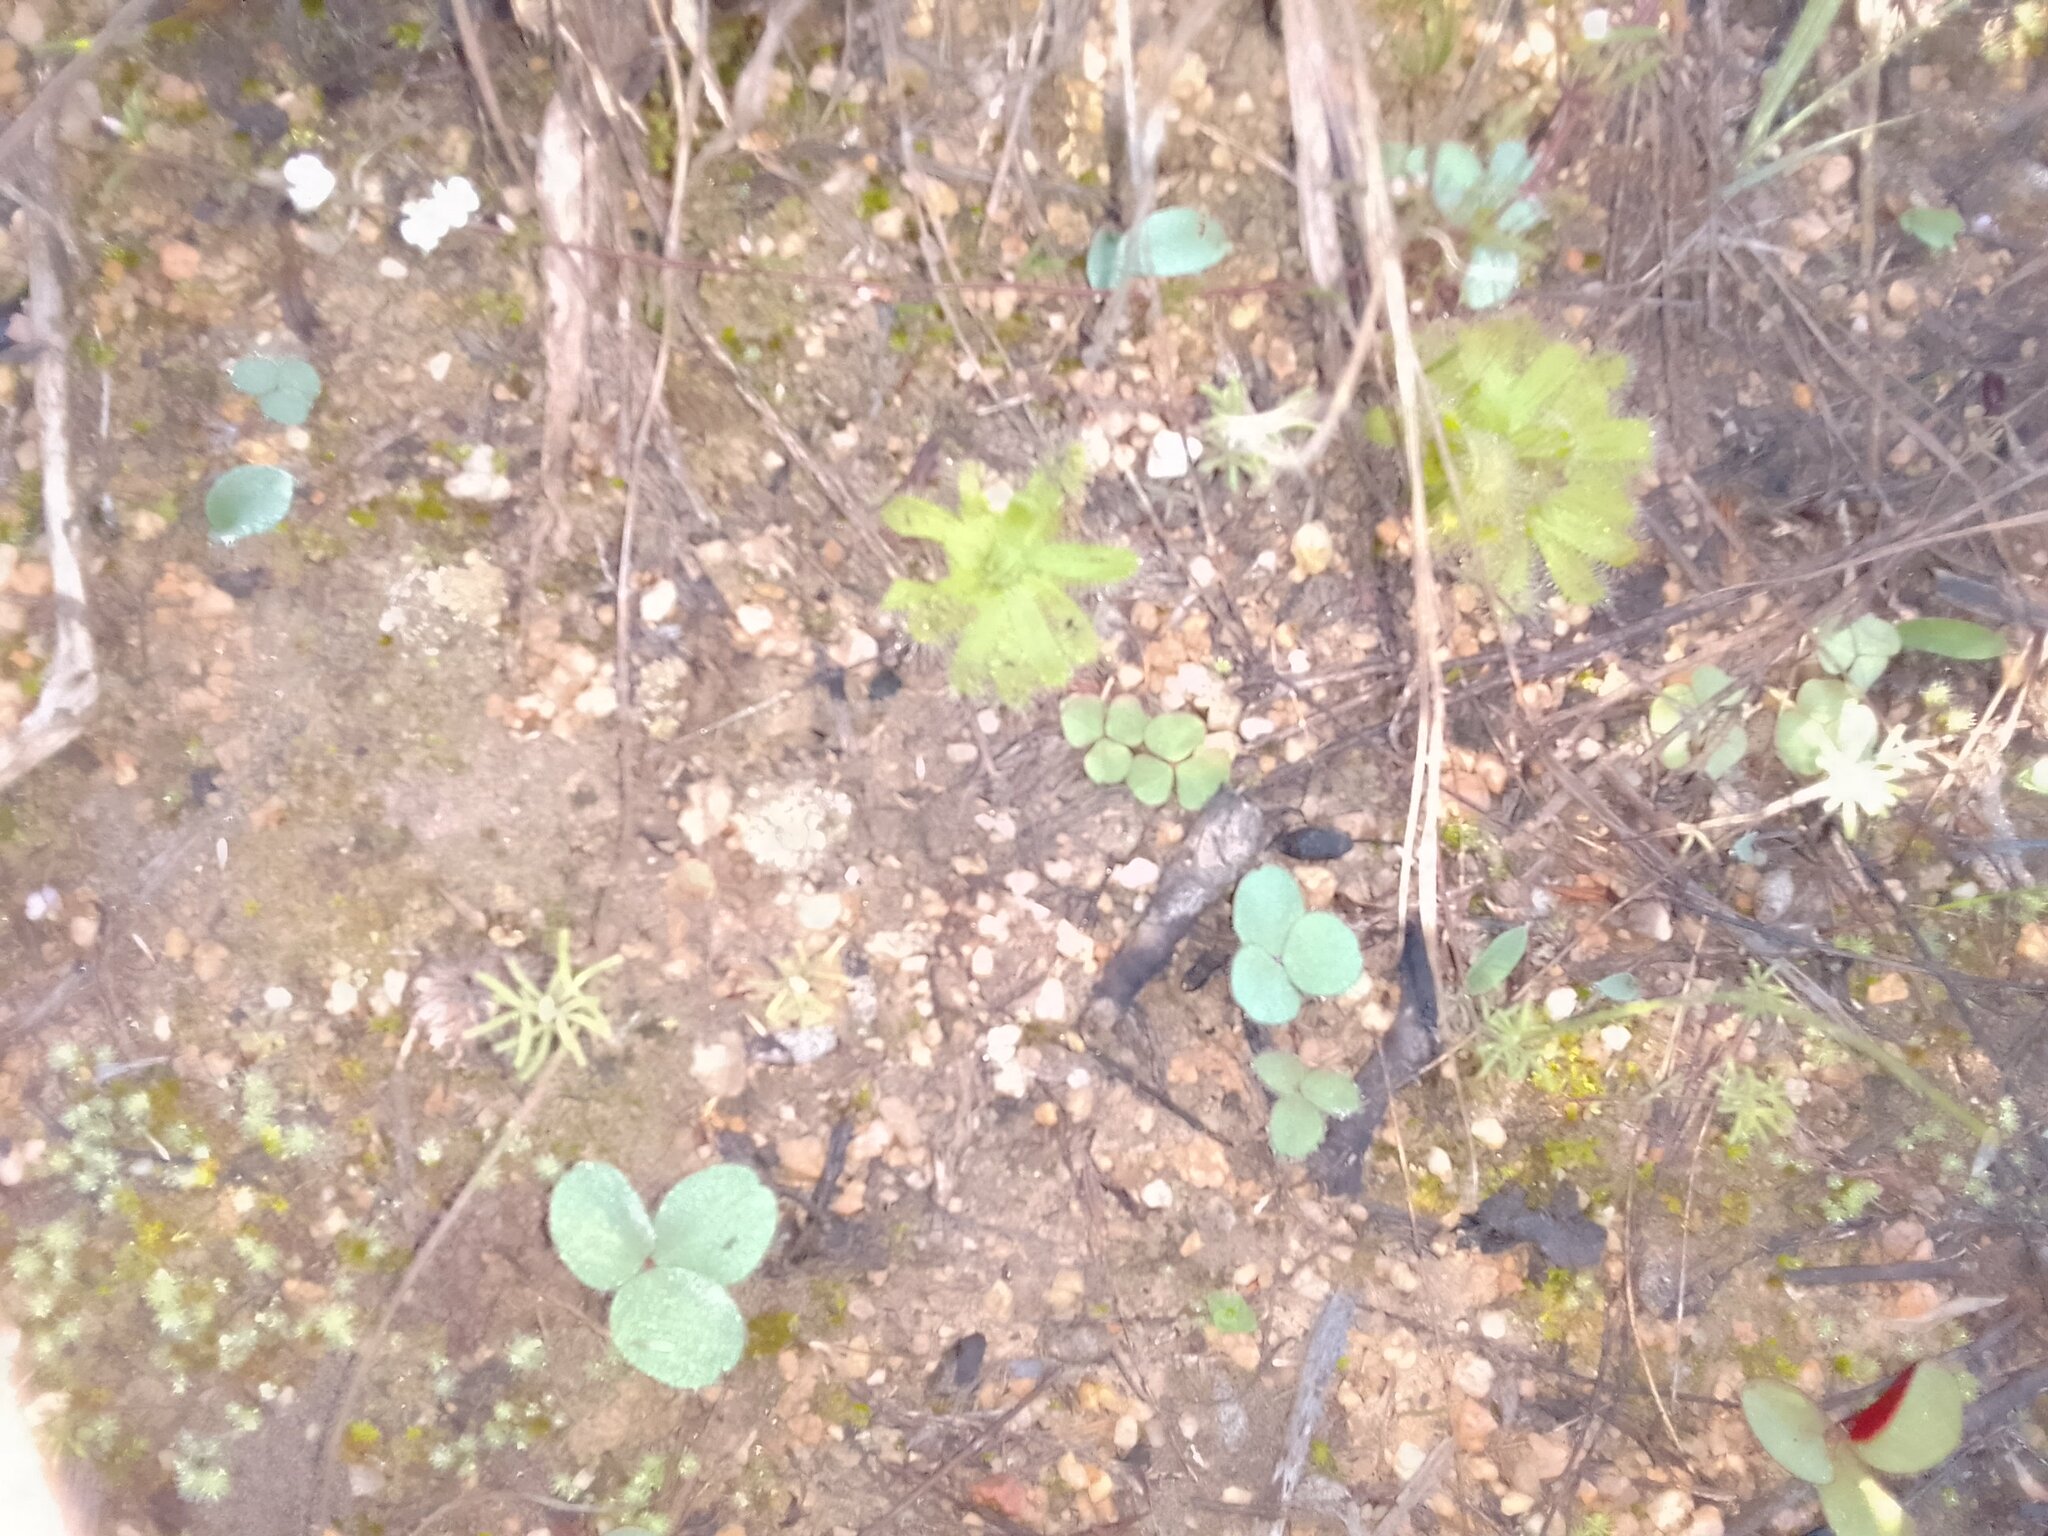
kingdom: Plantae
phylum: Tracheophyta
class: Magnoliopsida
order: Caryophyllales
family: Droseraceae
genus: Drosera
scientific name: Drosera cistiflora
